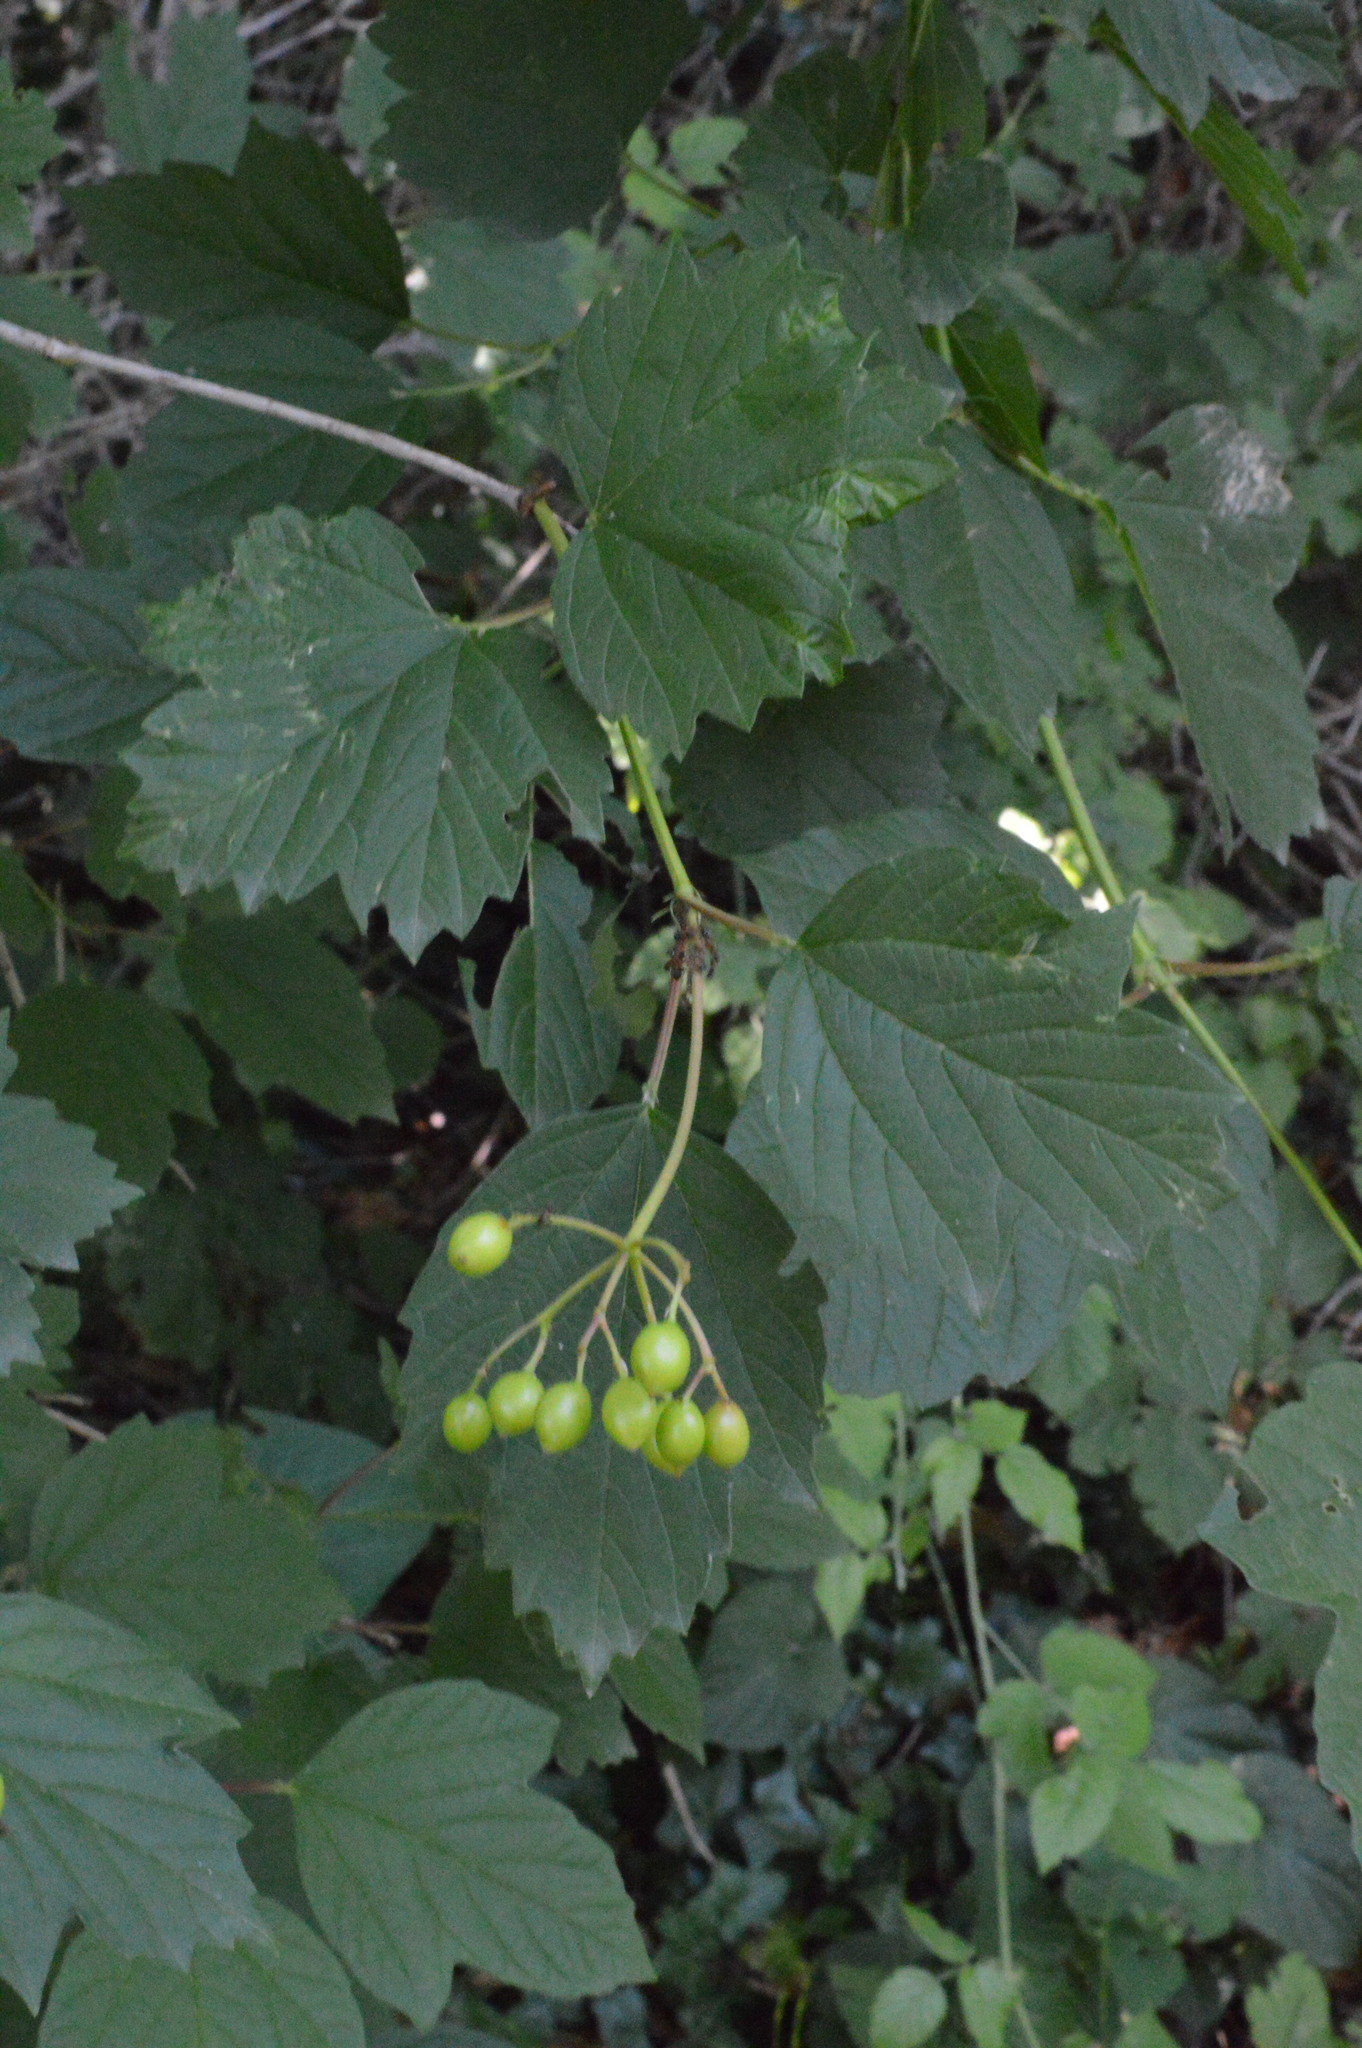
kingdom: Plantae
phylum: Tracheophyta
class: Magnoliopsida
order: Dipsacales
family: Viburnaceae
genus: Viburnum
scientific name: Viburnum opulus
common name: Guelder-rose
